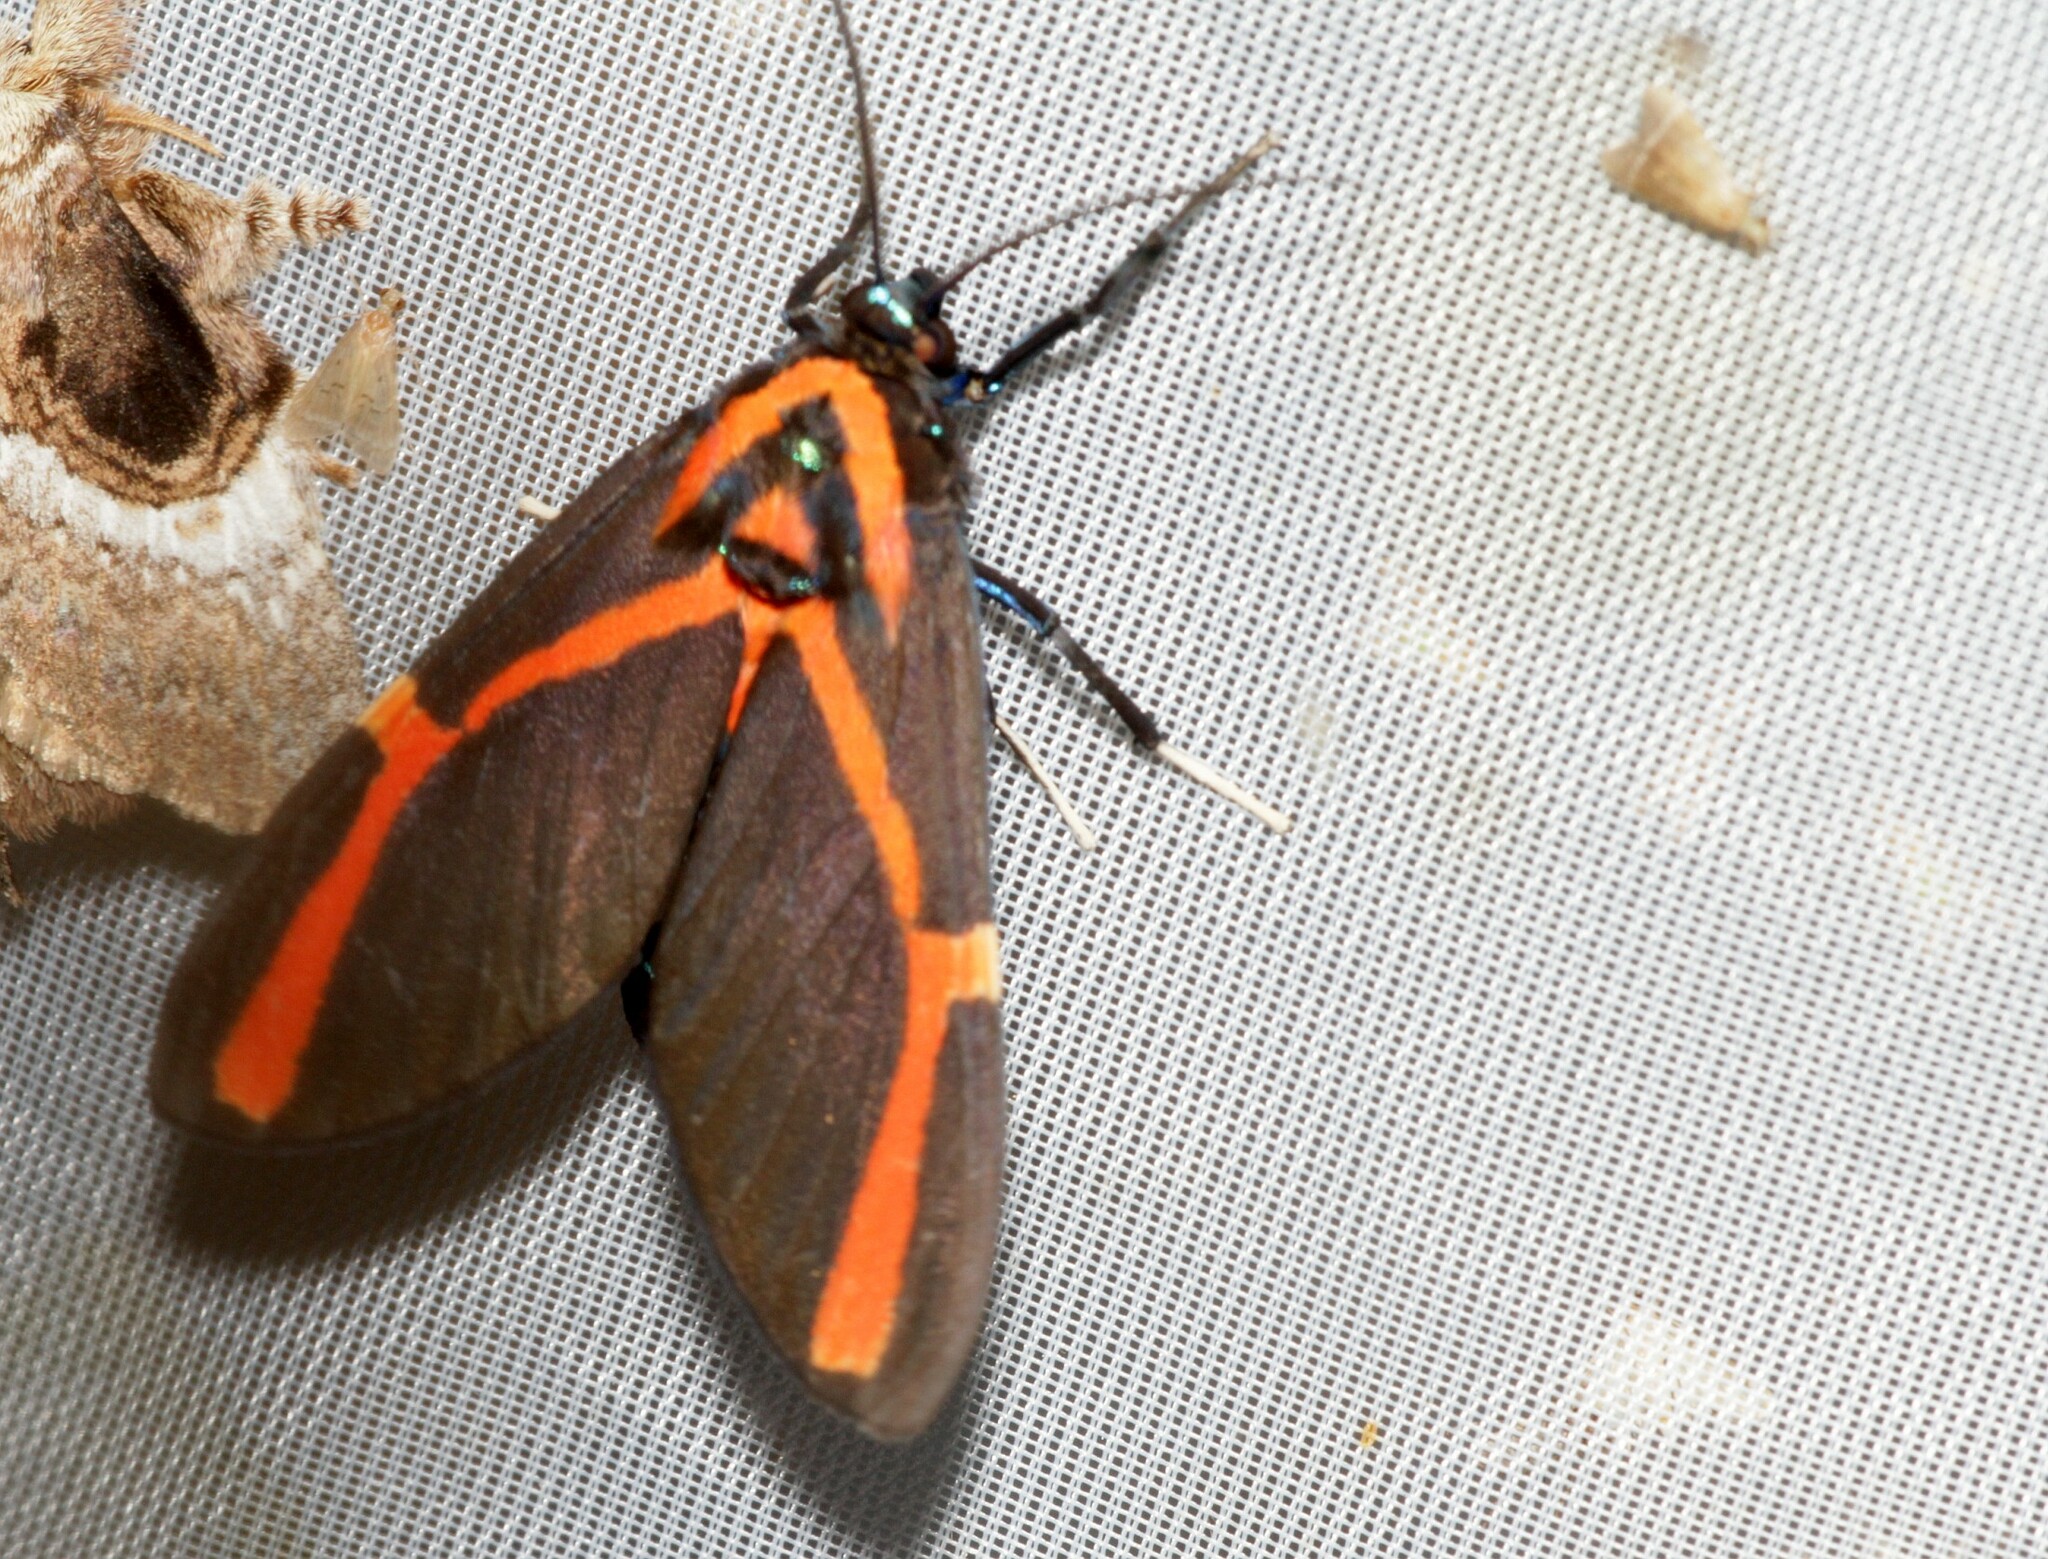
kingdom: Animalia
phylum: Arthropoda
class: Insecta
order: Lepidoptera
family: Erebidae
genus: Himerarctia
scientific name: Himerarctia docis
